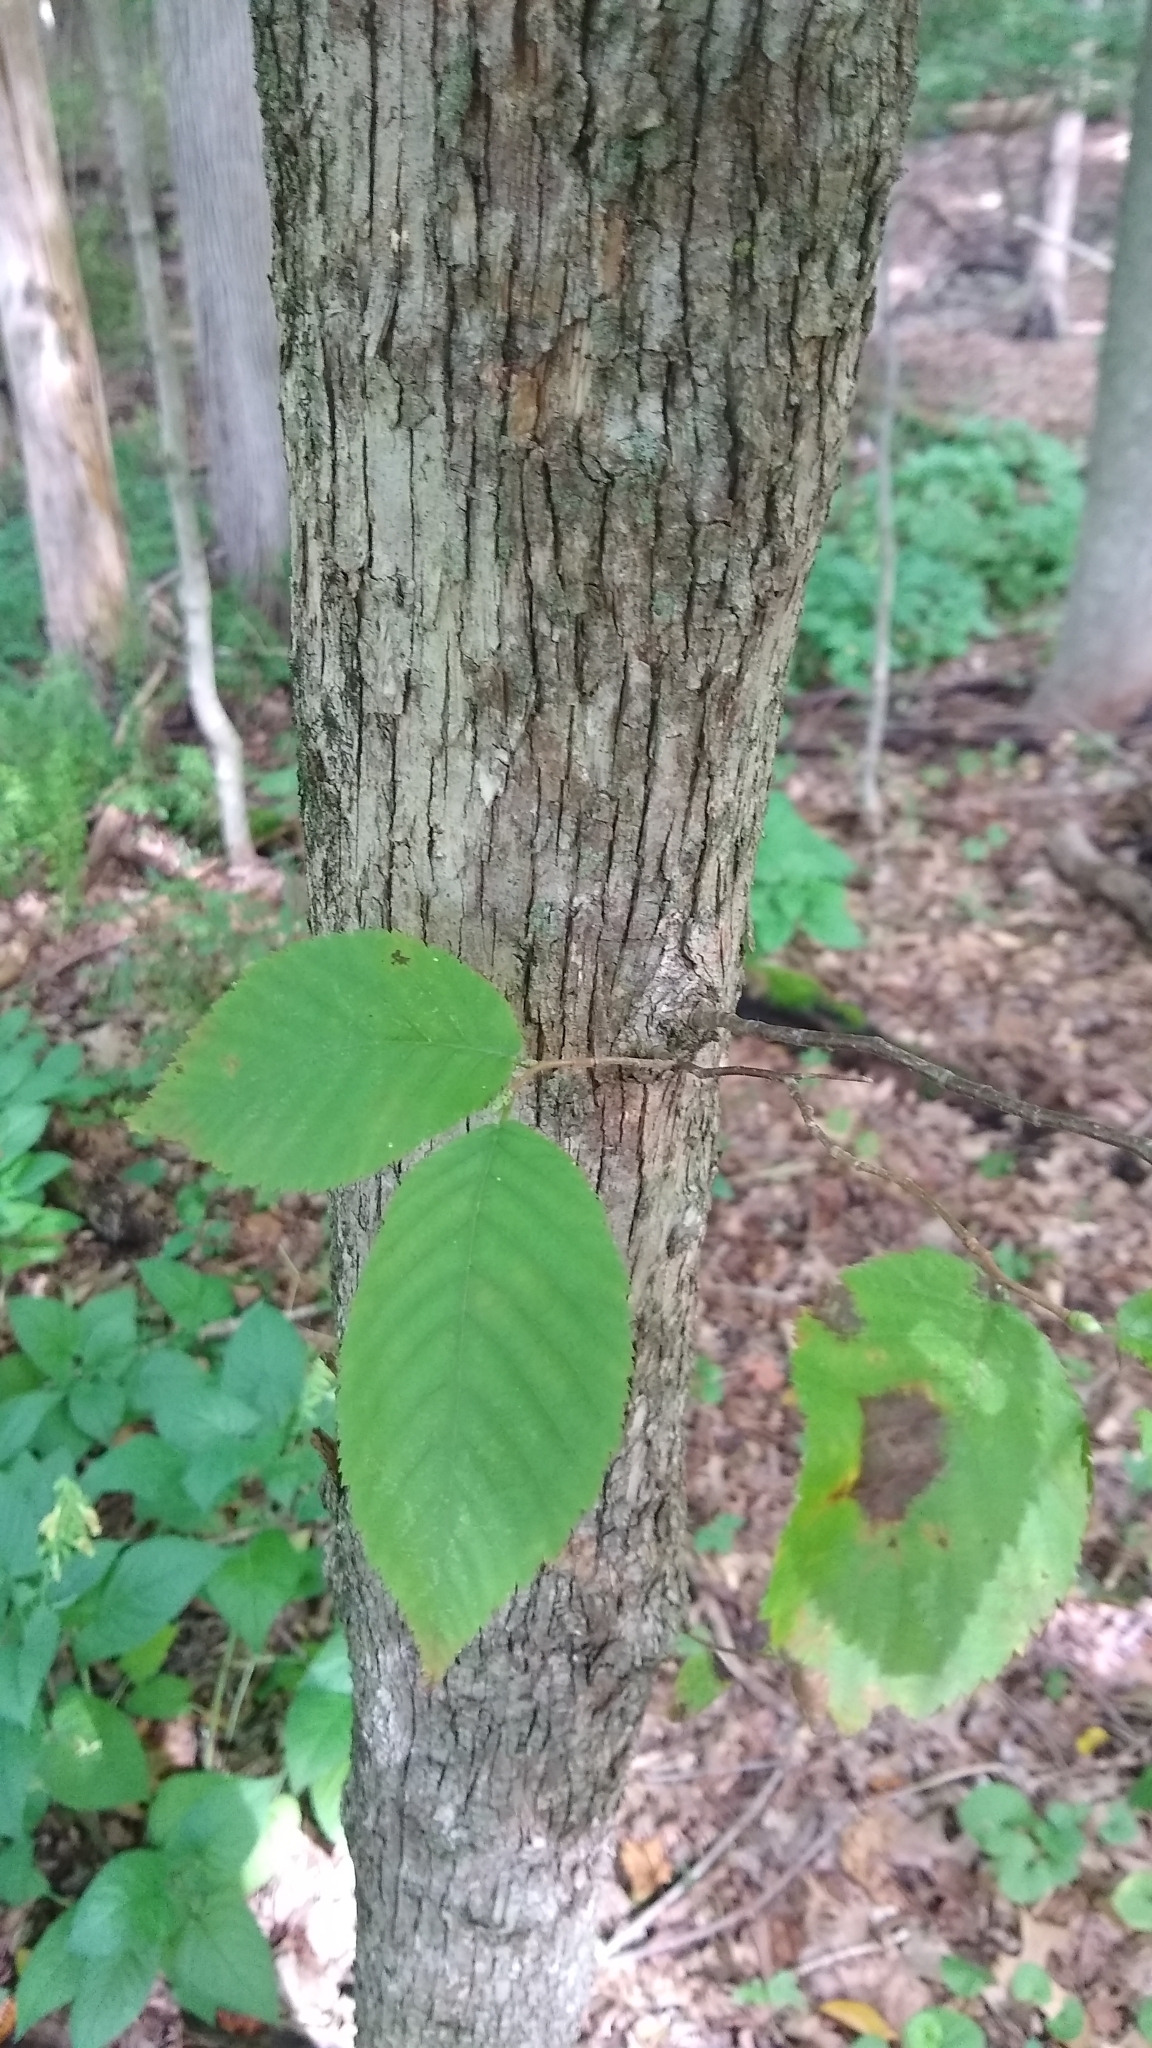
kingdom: Plantae
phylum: Tracheophyta
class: Magnoliopsida
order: Fagales
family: Betulaceae
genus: Ostrya
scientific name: Ostrya virginiana
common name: Ironwood
